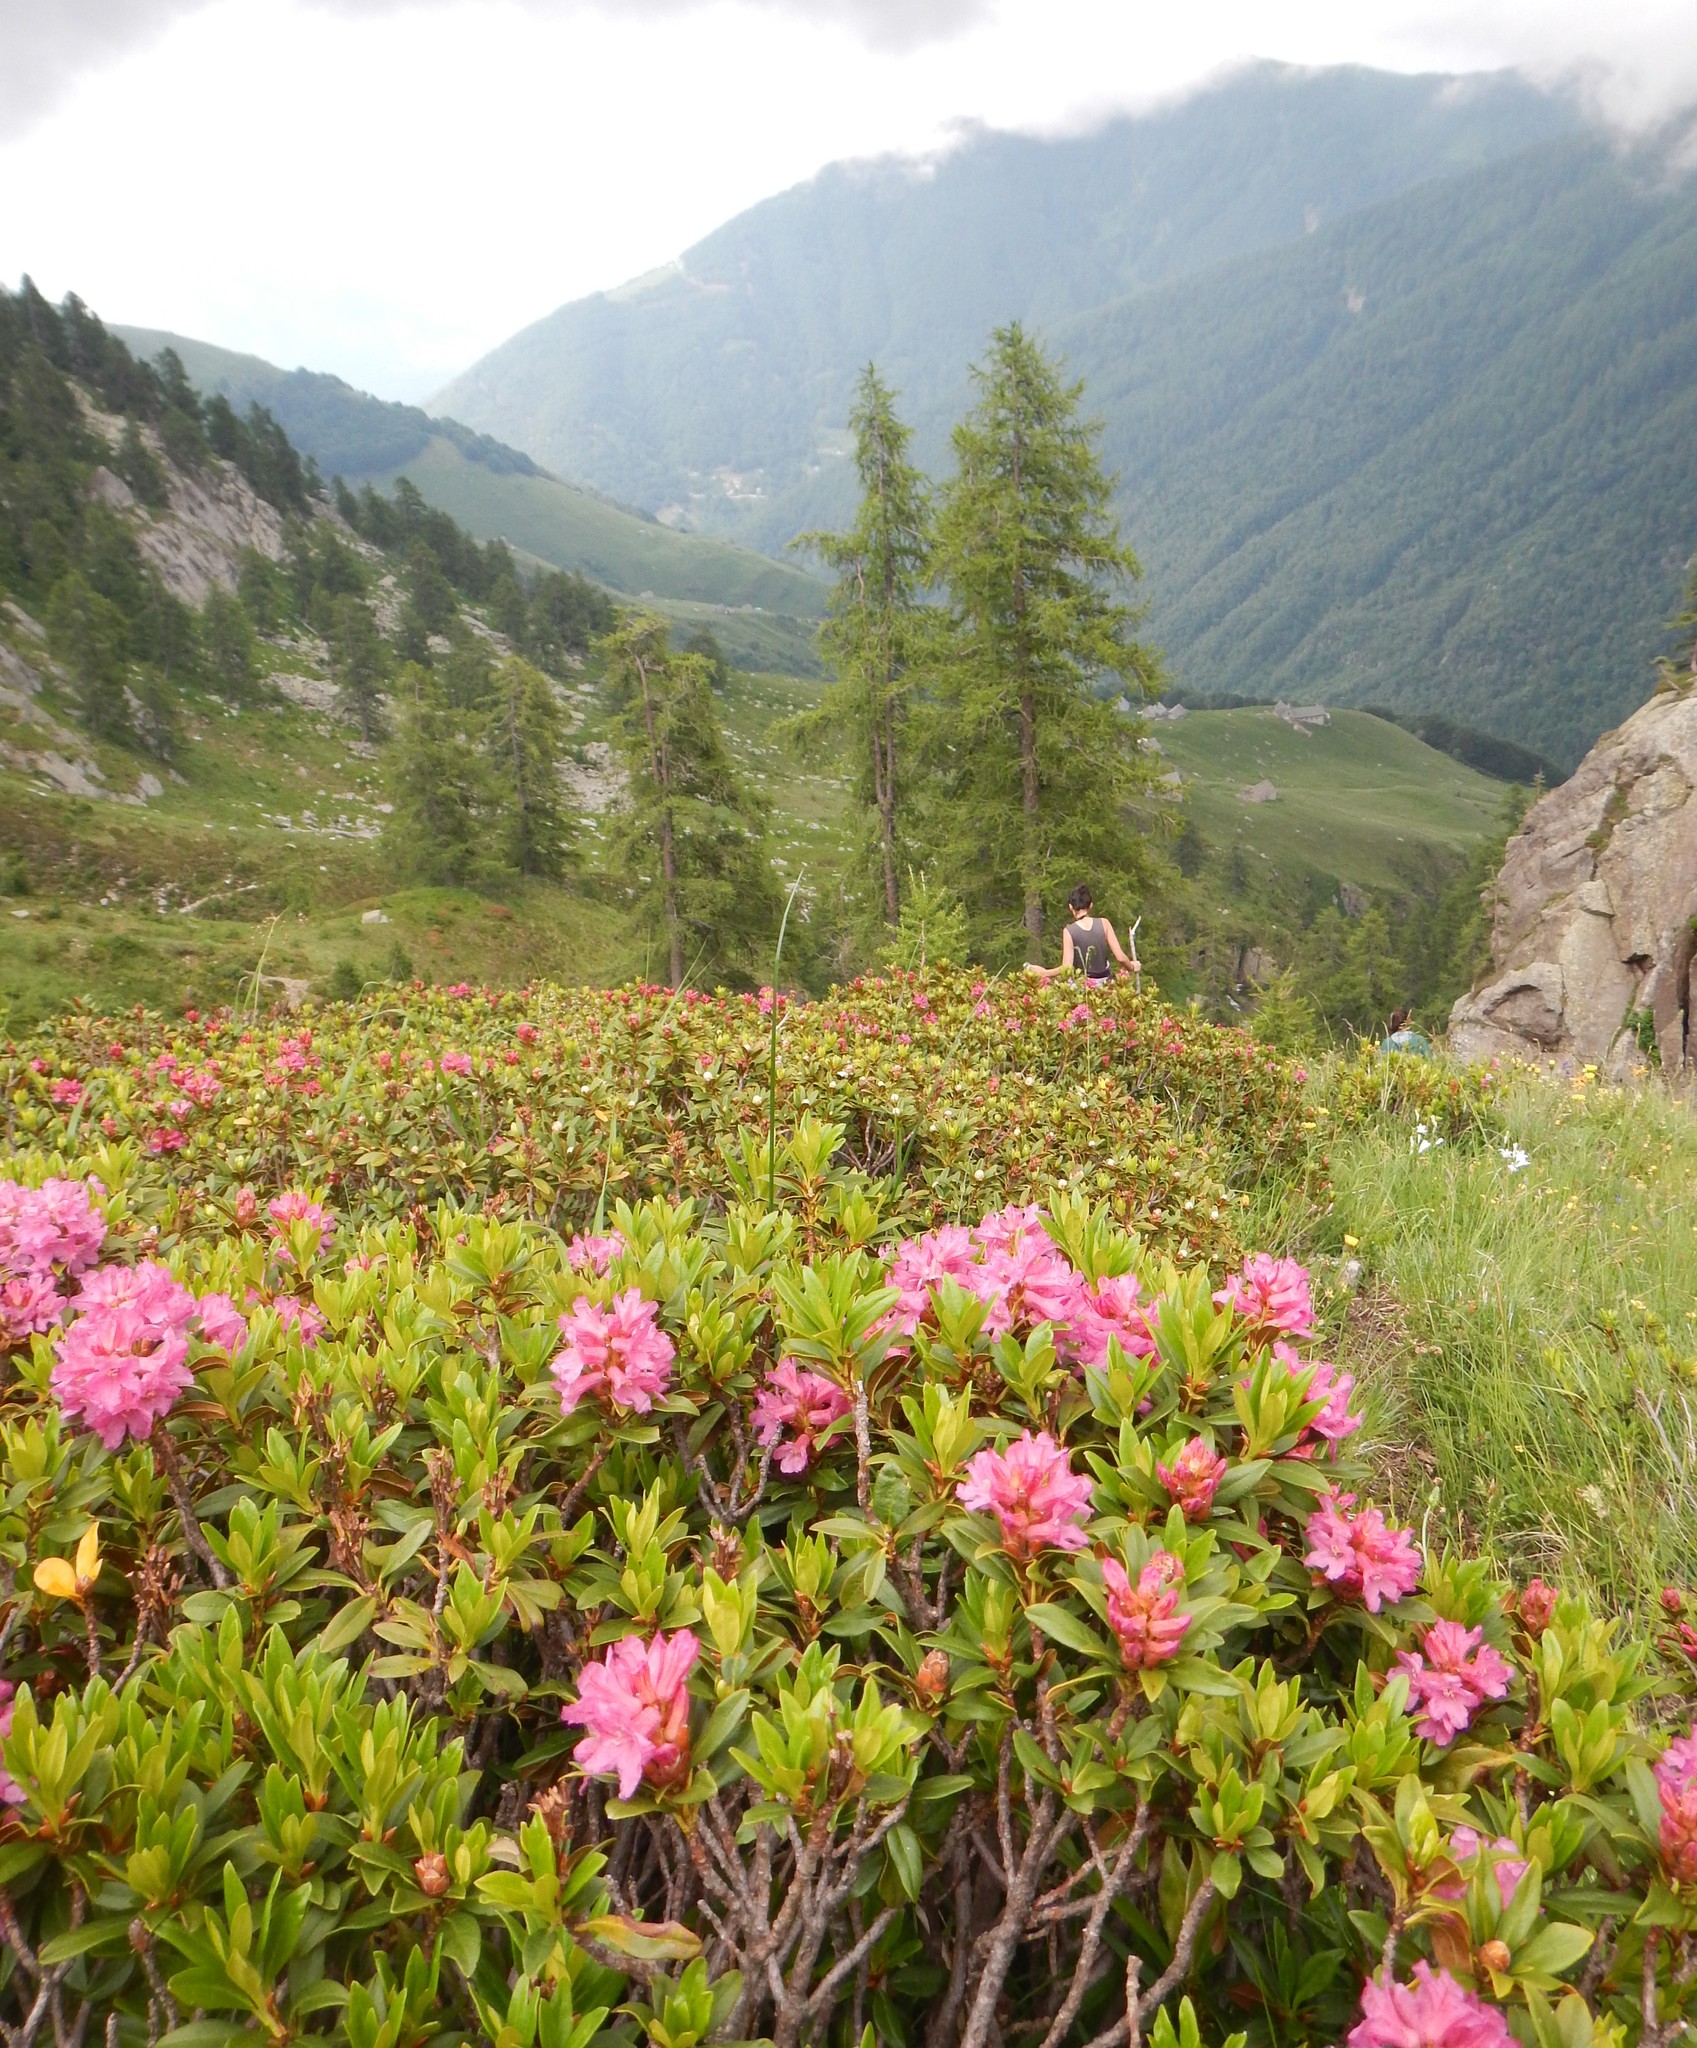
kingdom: Plantae
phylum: Tracheophyta
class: Magnoliopsida
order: Ericales
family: Ericaceae
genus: Rhododendron
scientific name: Rhododendron ferrugineum
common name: Alpenrose
